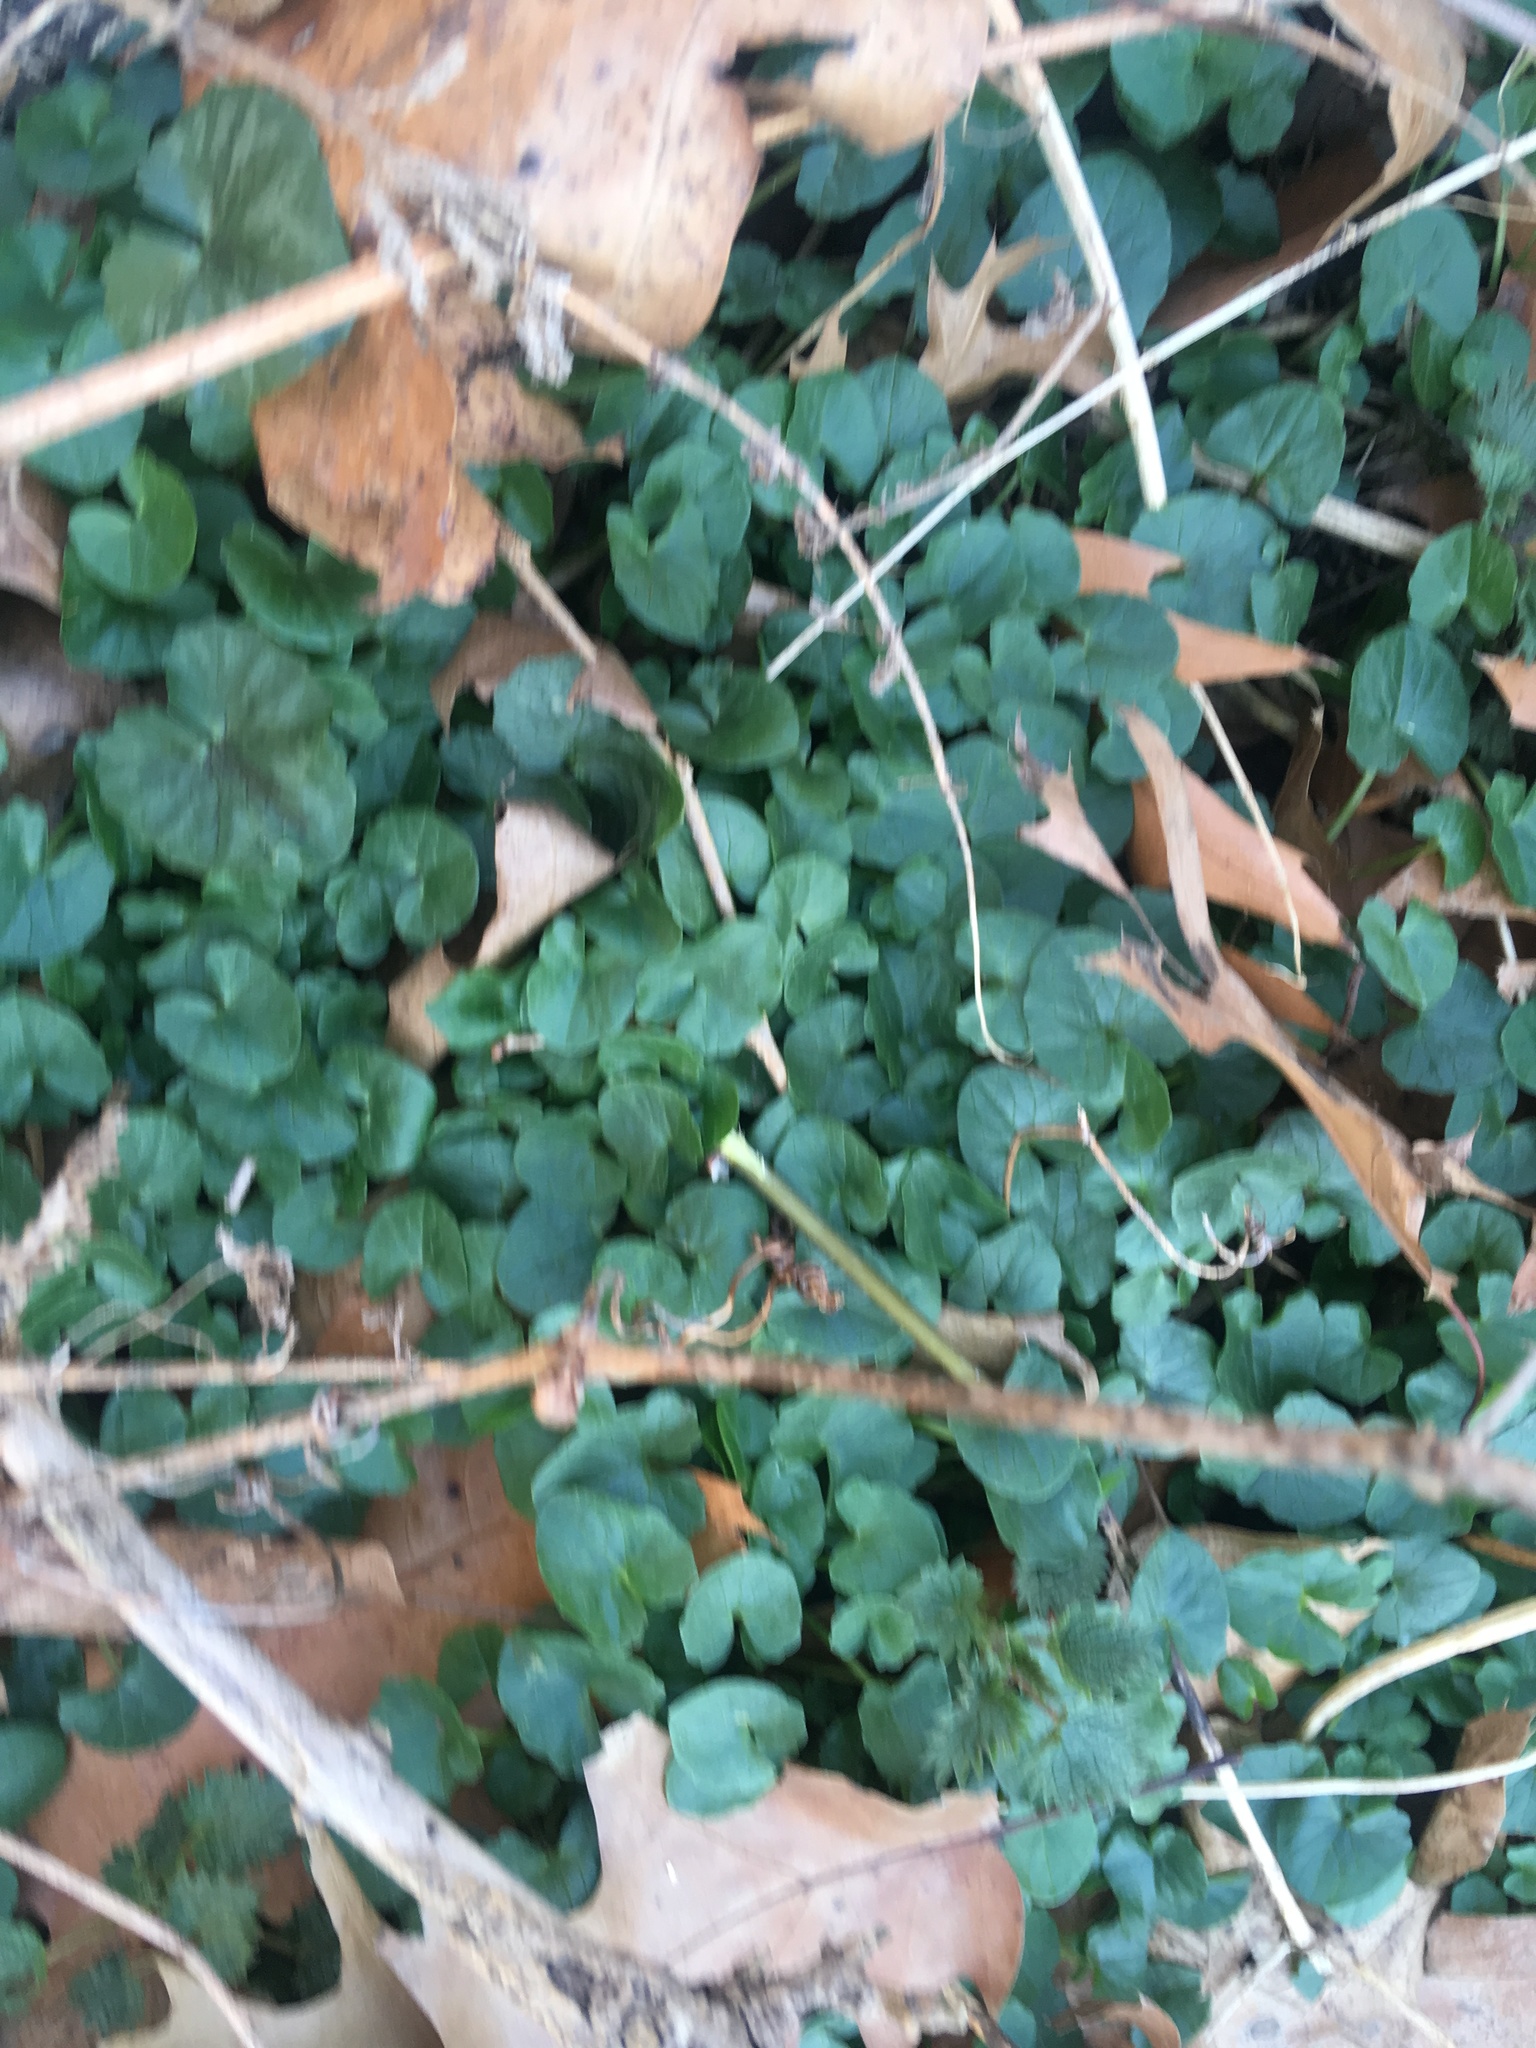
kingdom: Plantae
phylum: Tracheophyta
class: Magnoliopsida
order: Ranunculales
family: Ranunculaceae
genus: Ficaria
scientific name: Ficaria verna
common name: Lesser celandine
